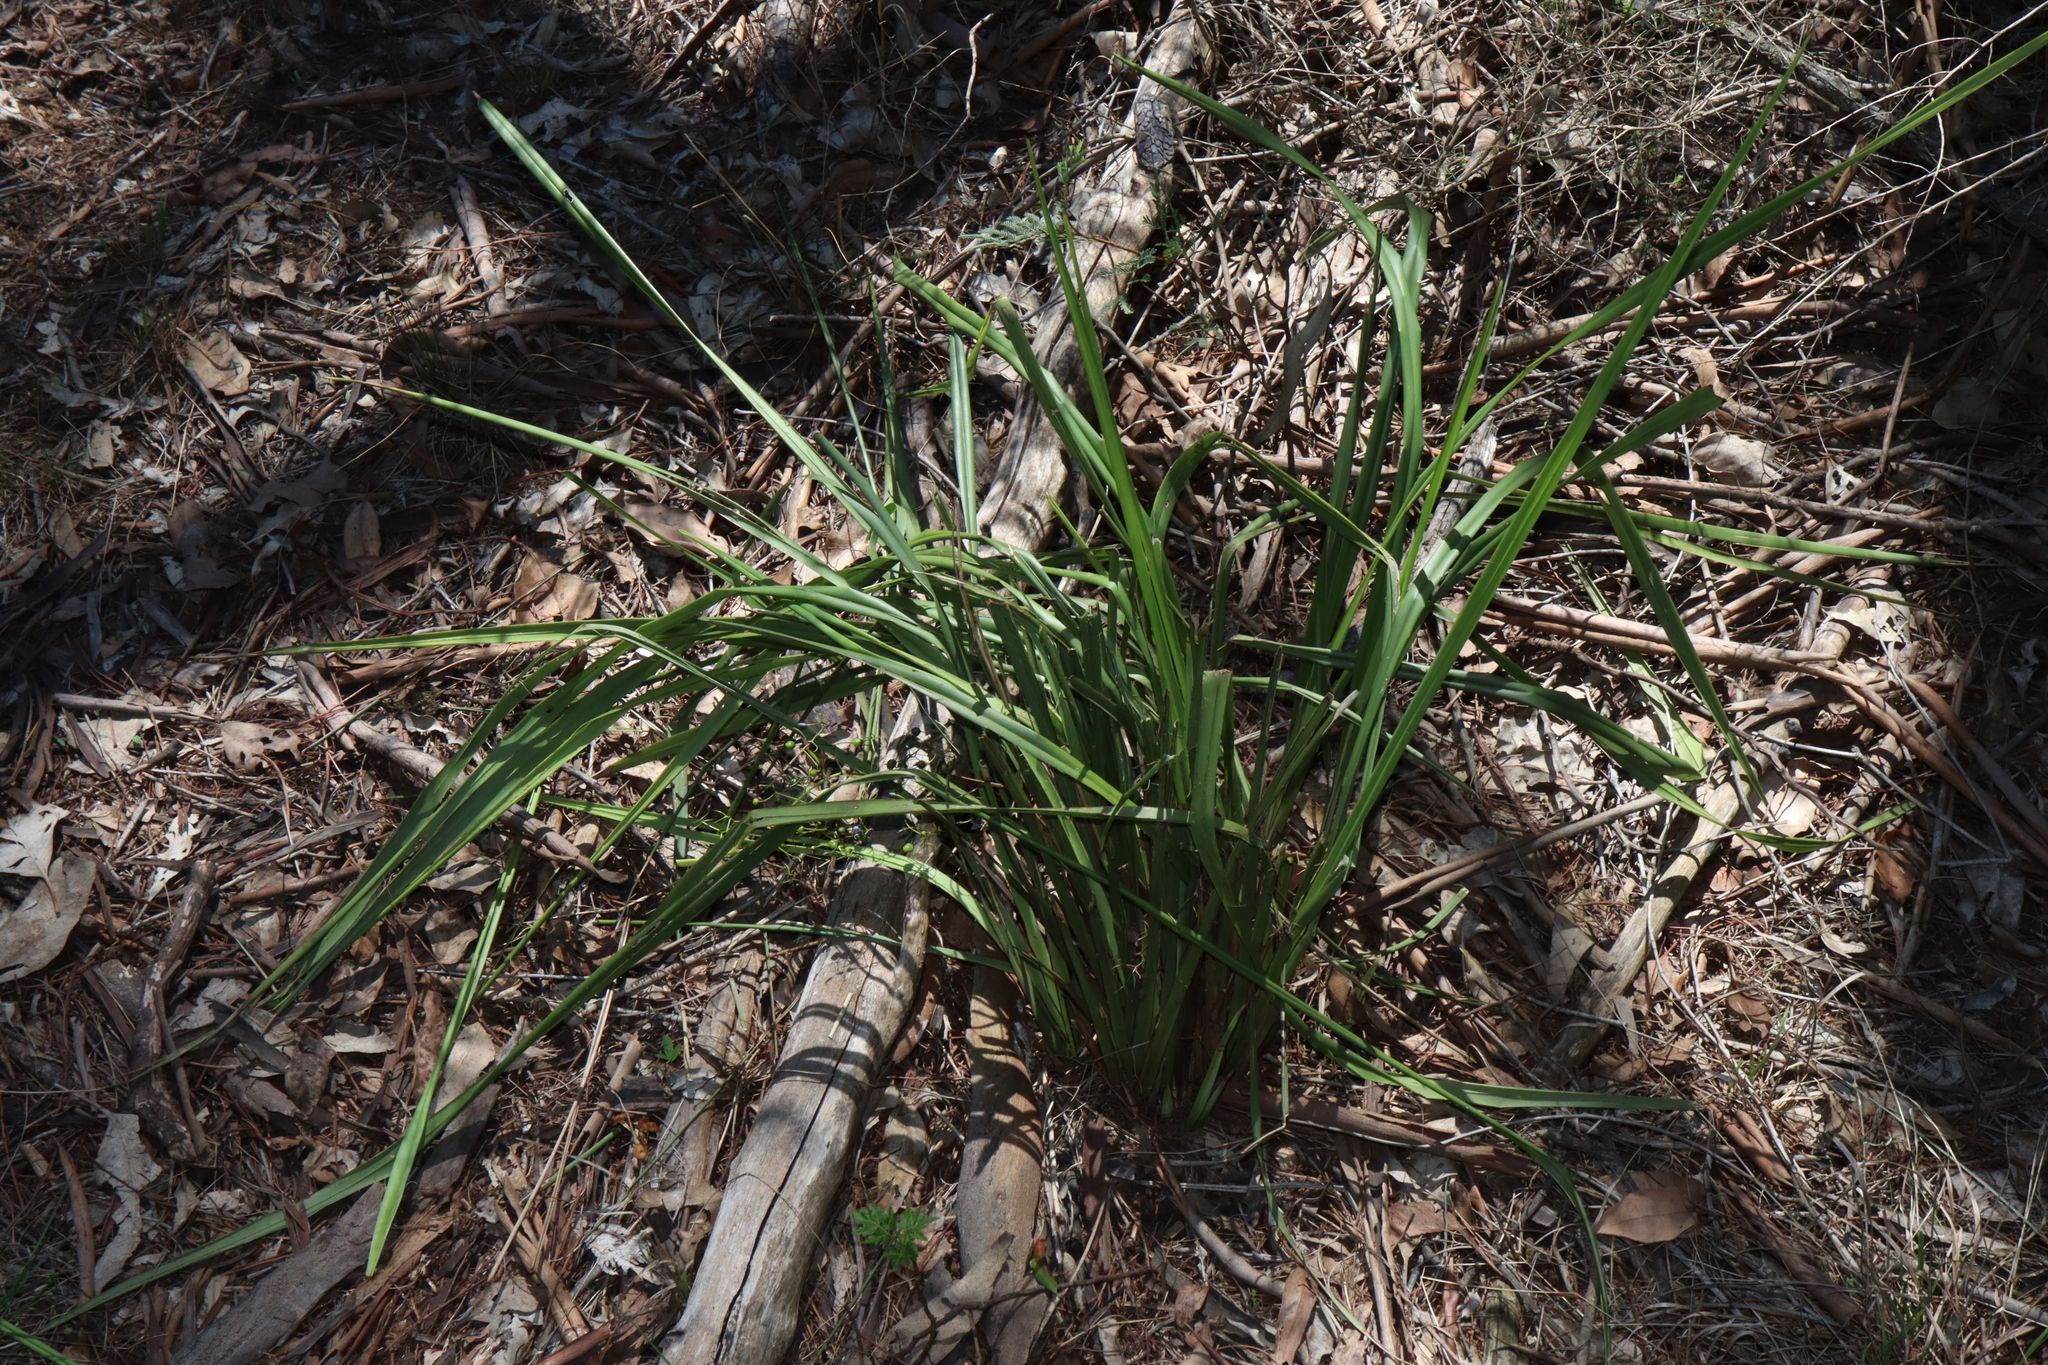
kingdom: Plantae
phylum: Tracheophyta
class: Liliopsida
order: Asparagales
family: Asphodelaceae
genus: Dianella
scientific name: Dianella brevipedunculata
